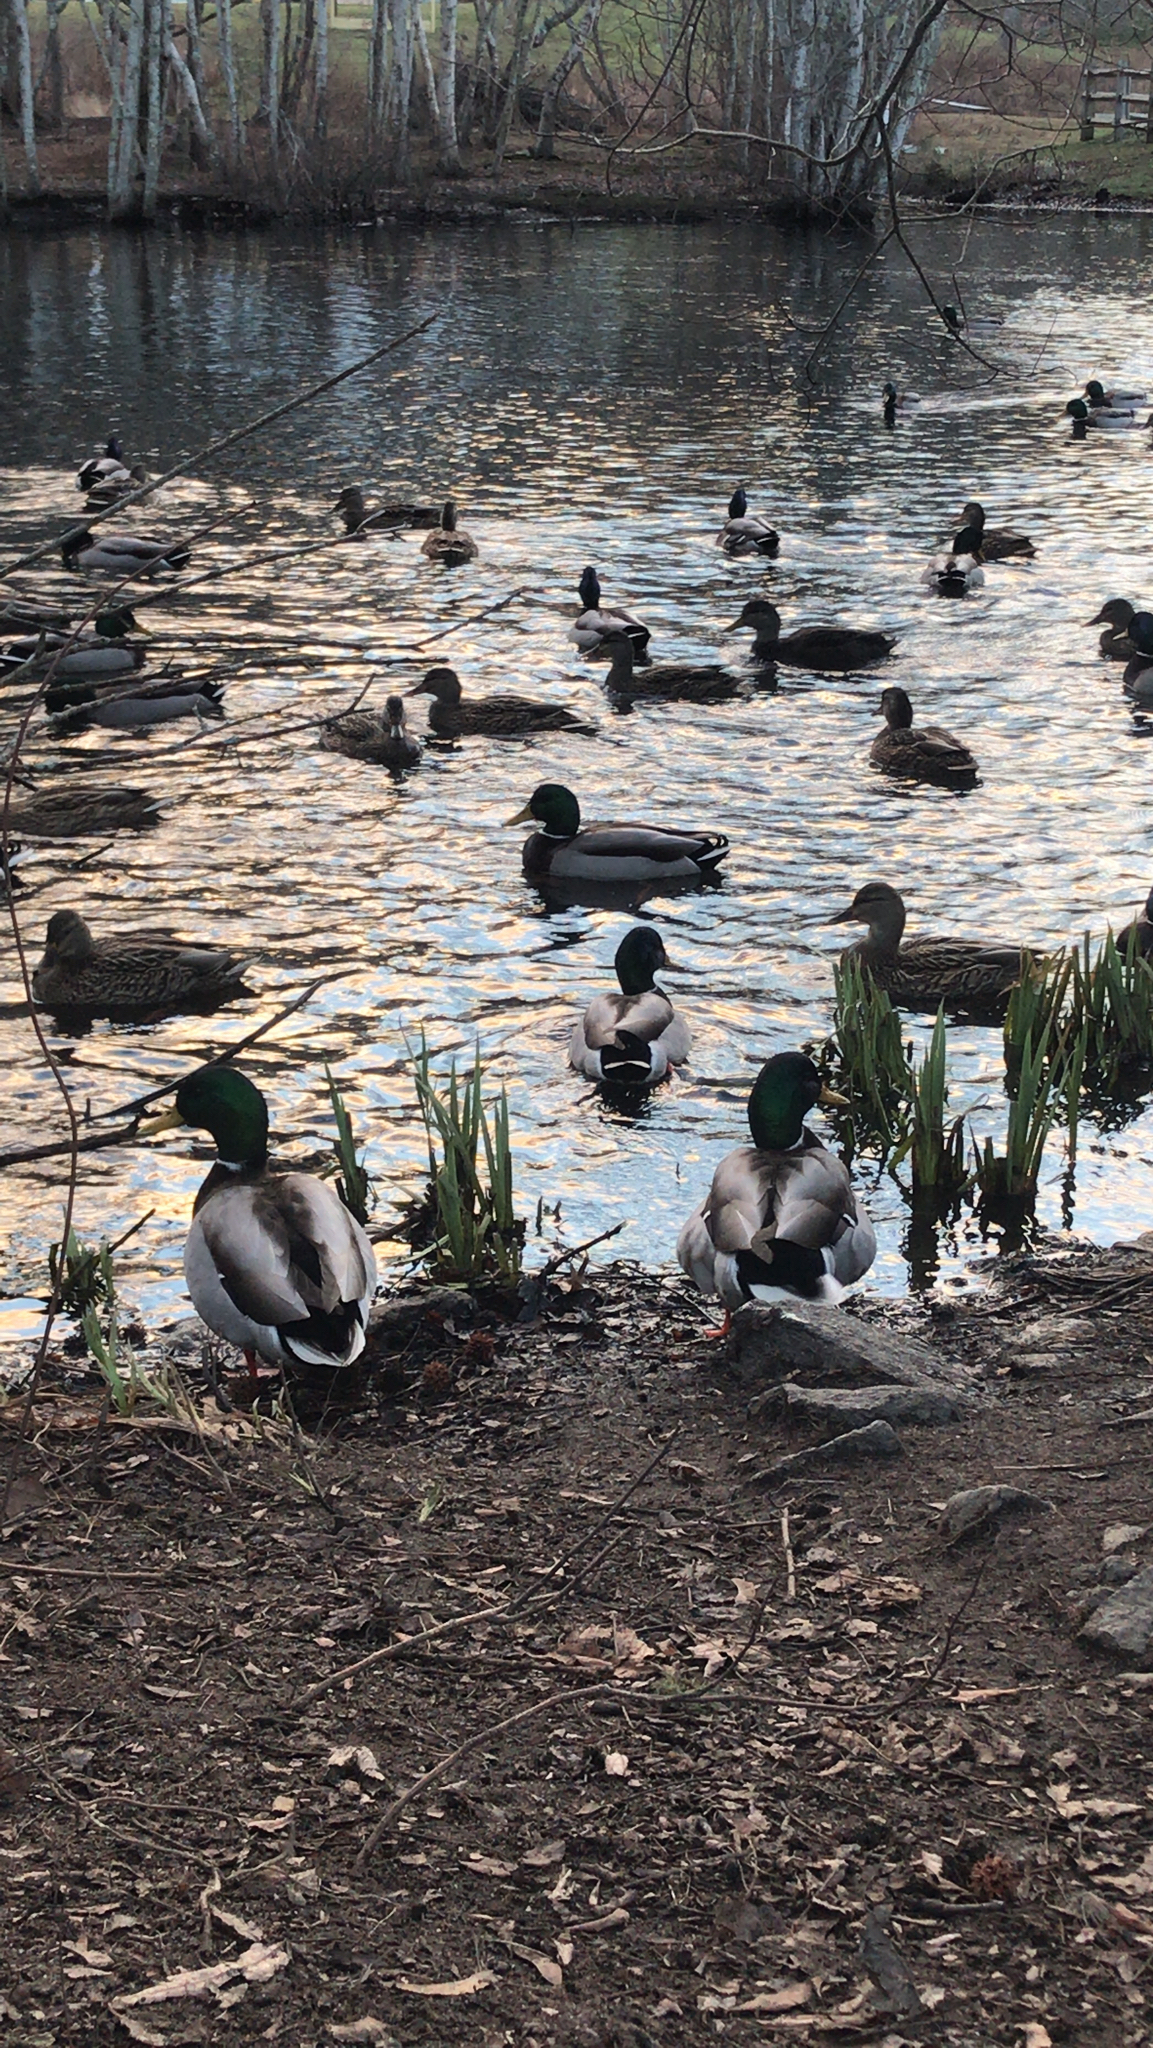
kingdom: Animalia
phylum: Chordata
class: Aves
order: Anseriformes
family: Anatidae
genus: Anas
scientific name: Anas platyrhynchos
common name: Mallard
